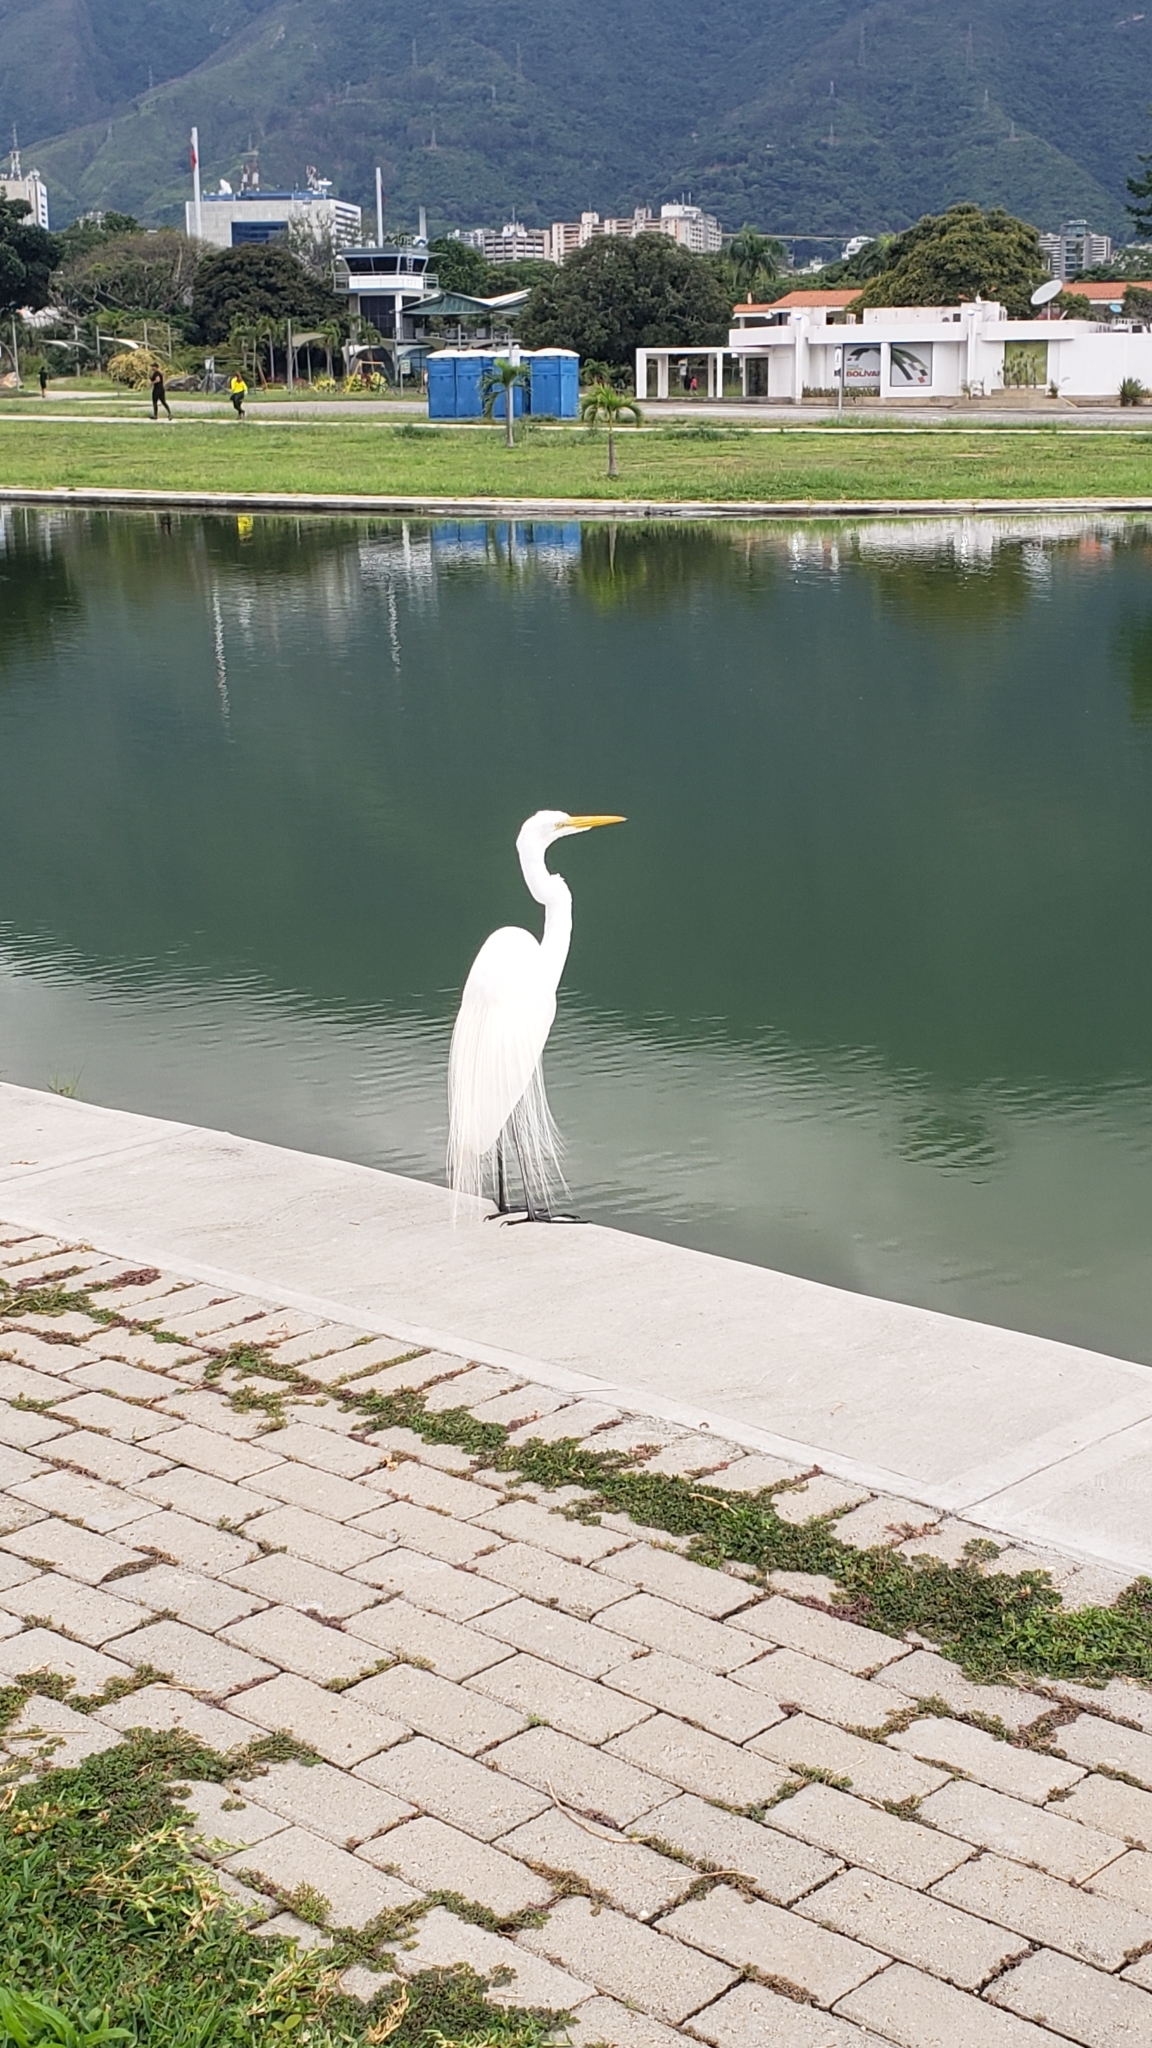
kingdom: Animalia
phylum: Chordata
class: Aves
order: Pelecaniformes
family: Ardeidae
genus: Ardea
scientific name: Ardea alba
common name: Great egret
